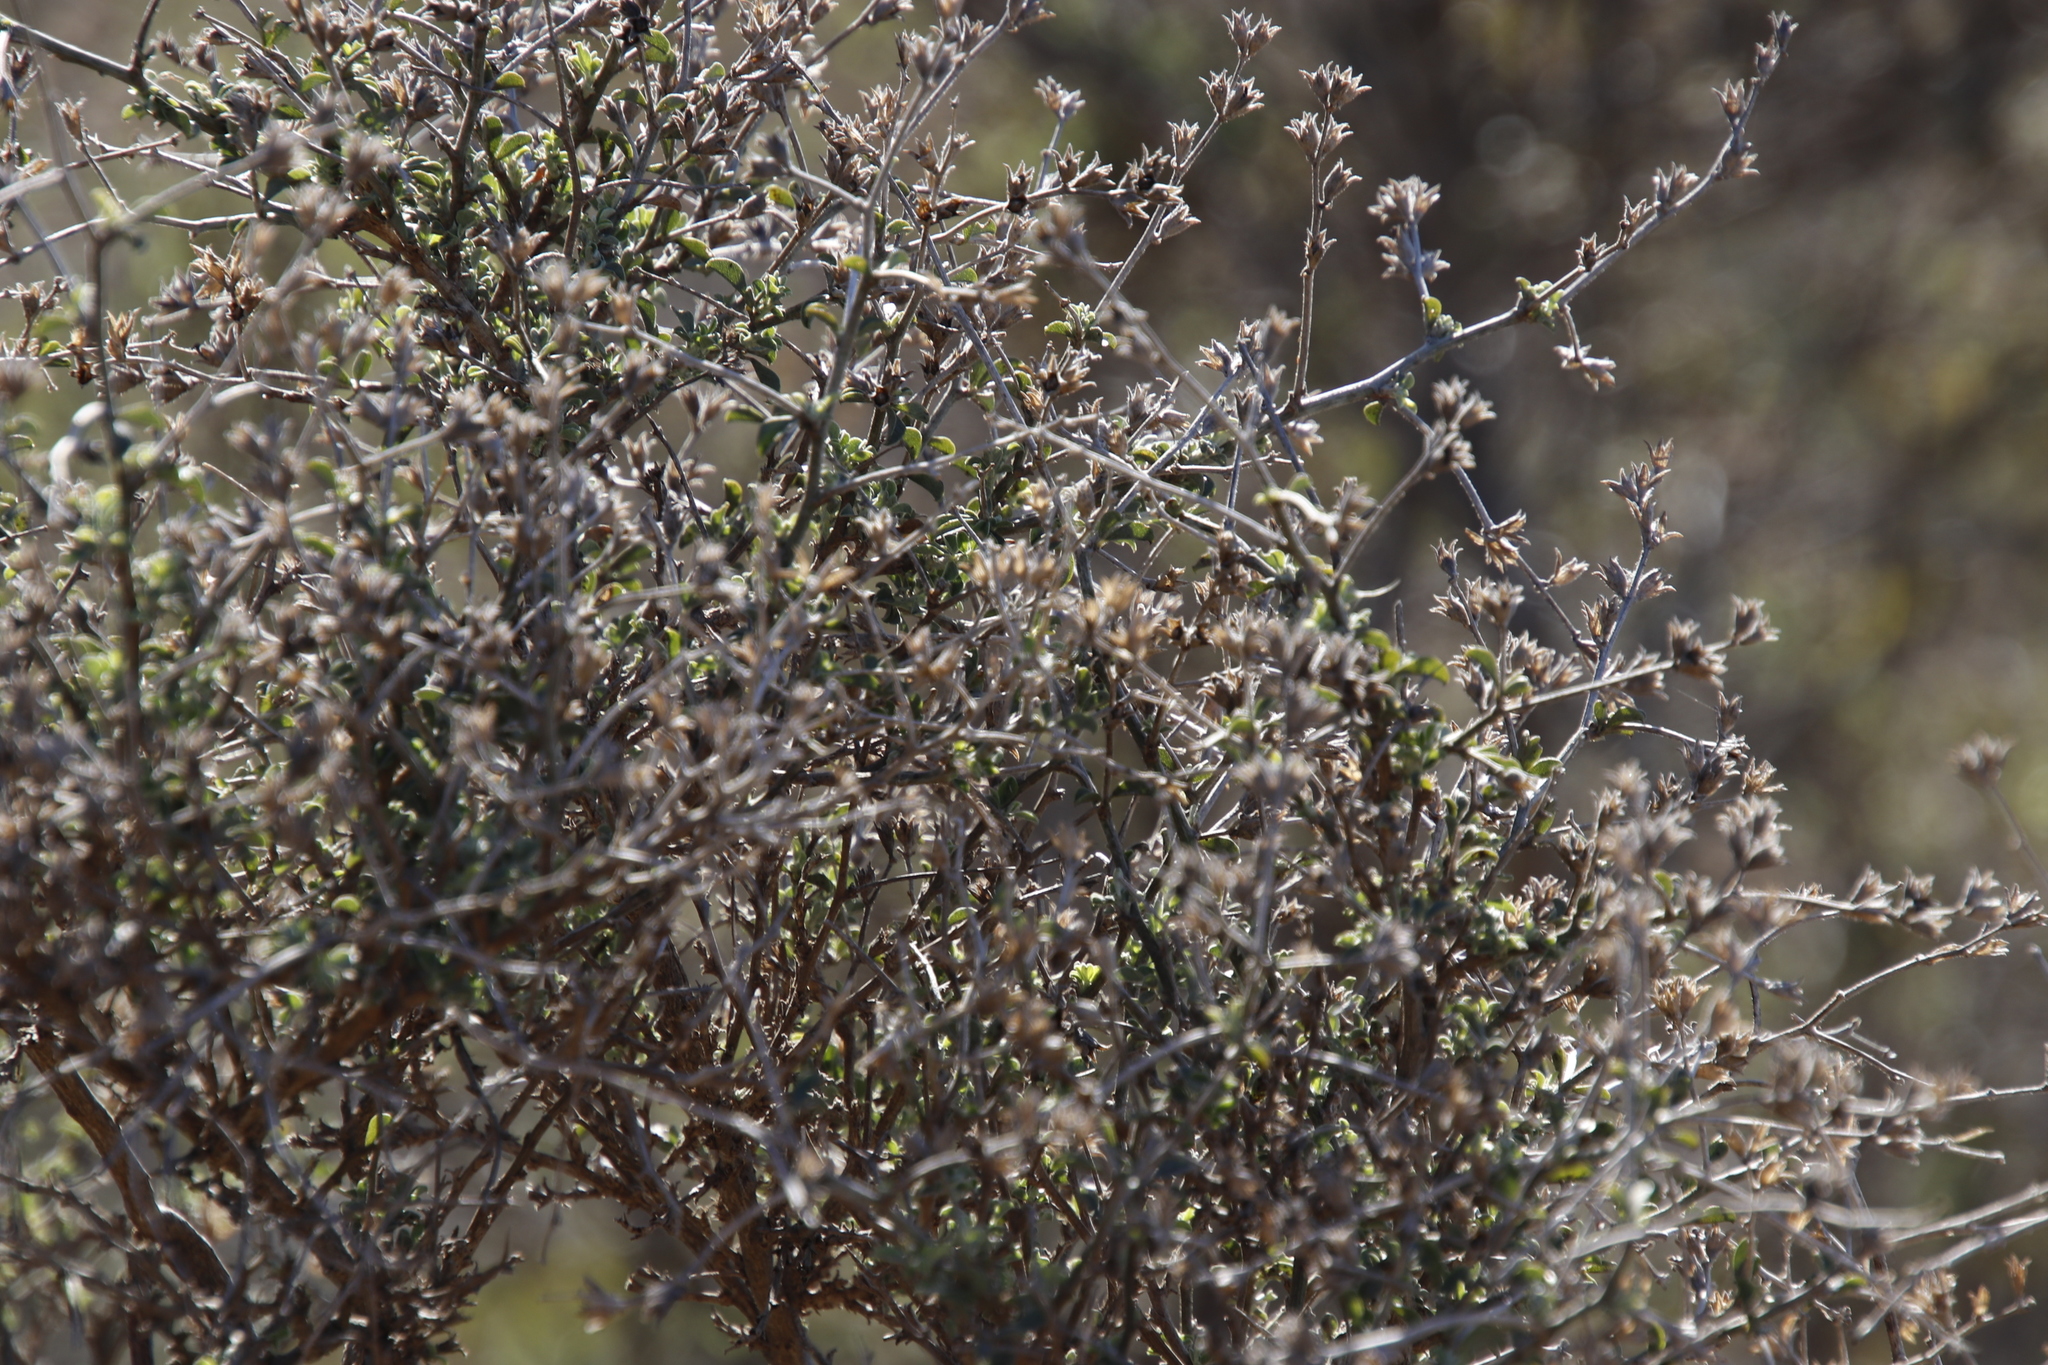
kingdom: Plantae
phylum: Tracheophyta
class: Magnoliopsida
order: Fabales
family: Fabaceae
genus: Psoralea
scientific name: Psoralea hirta
